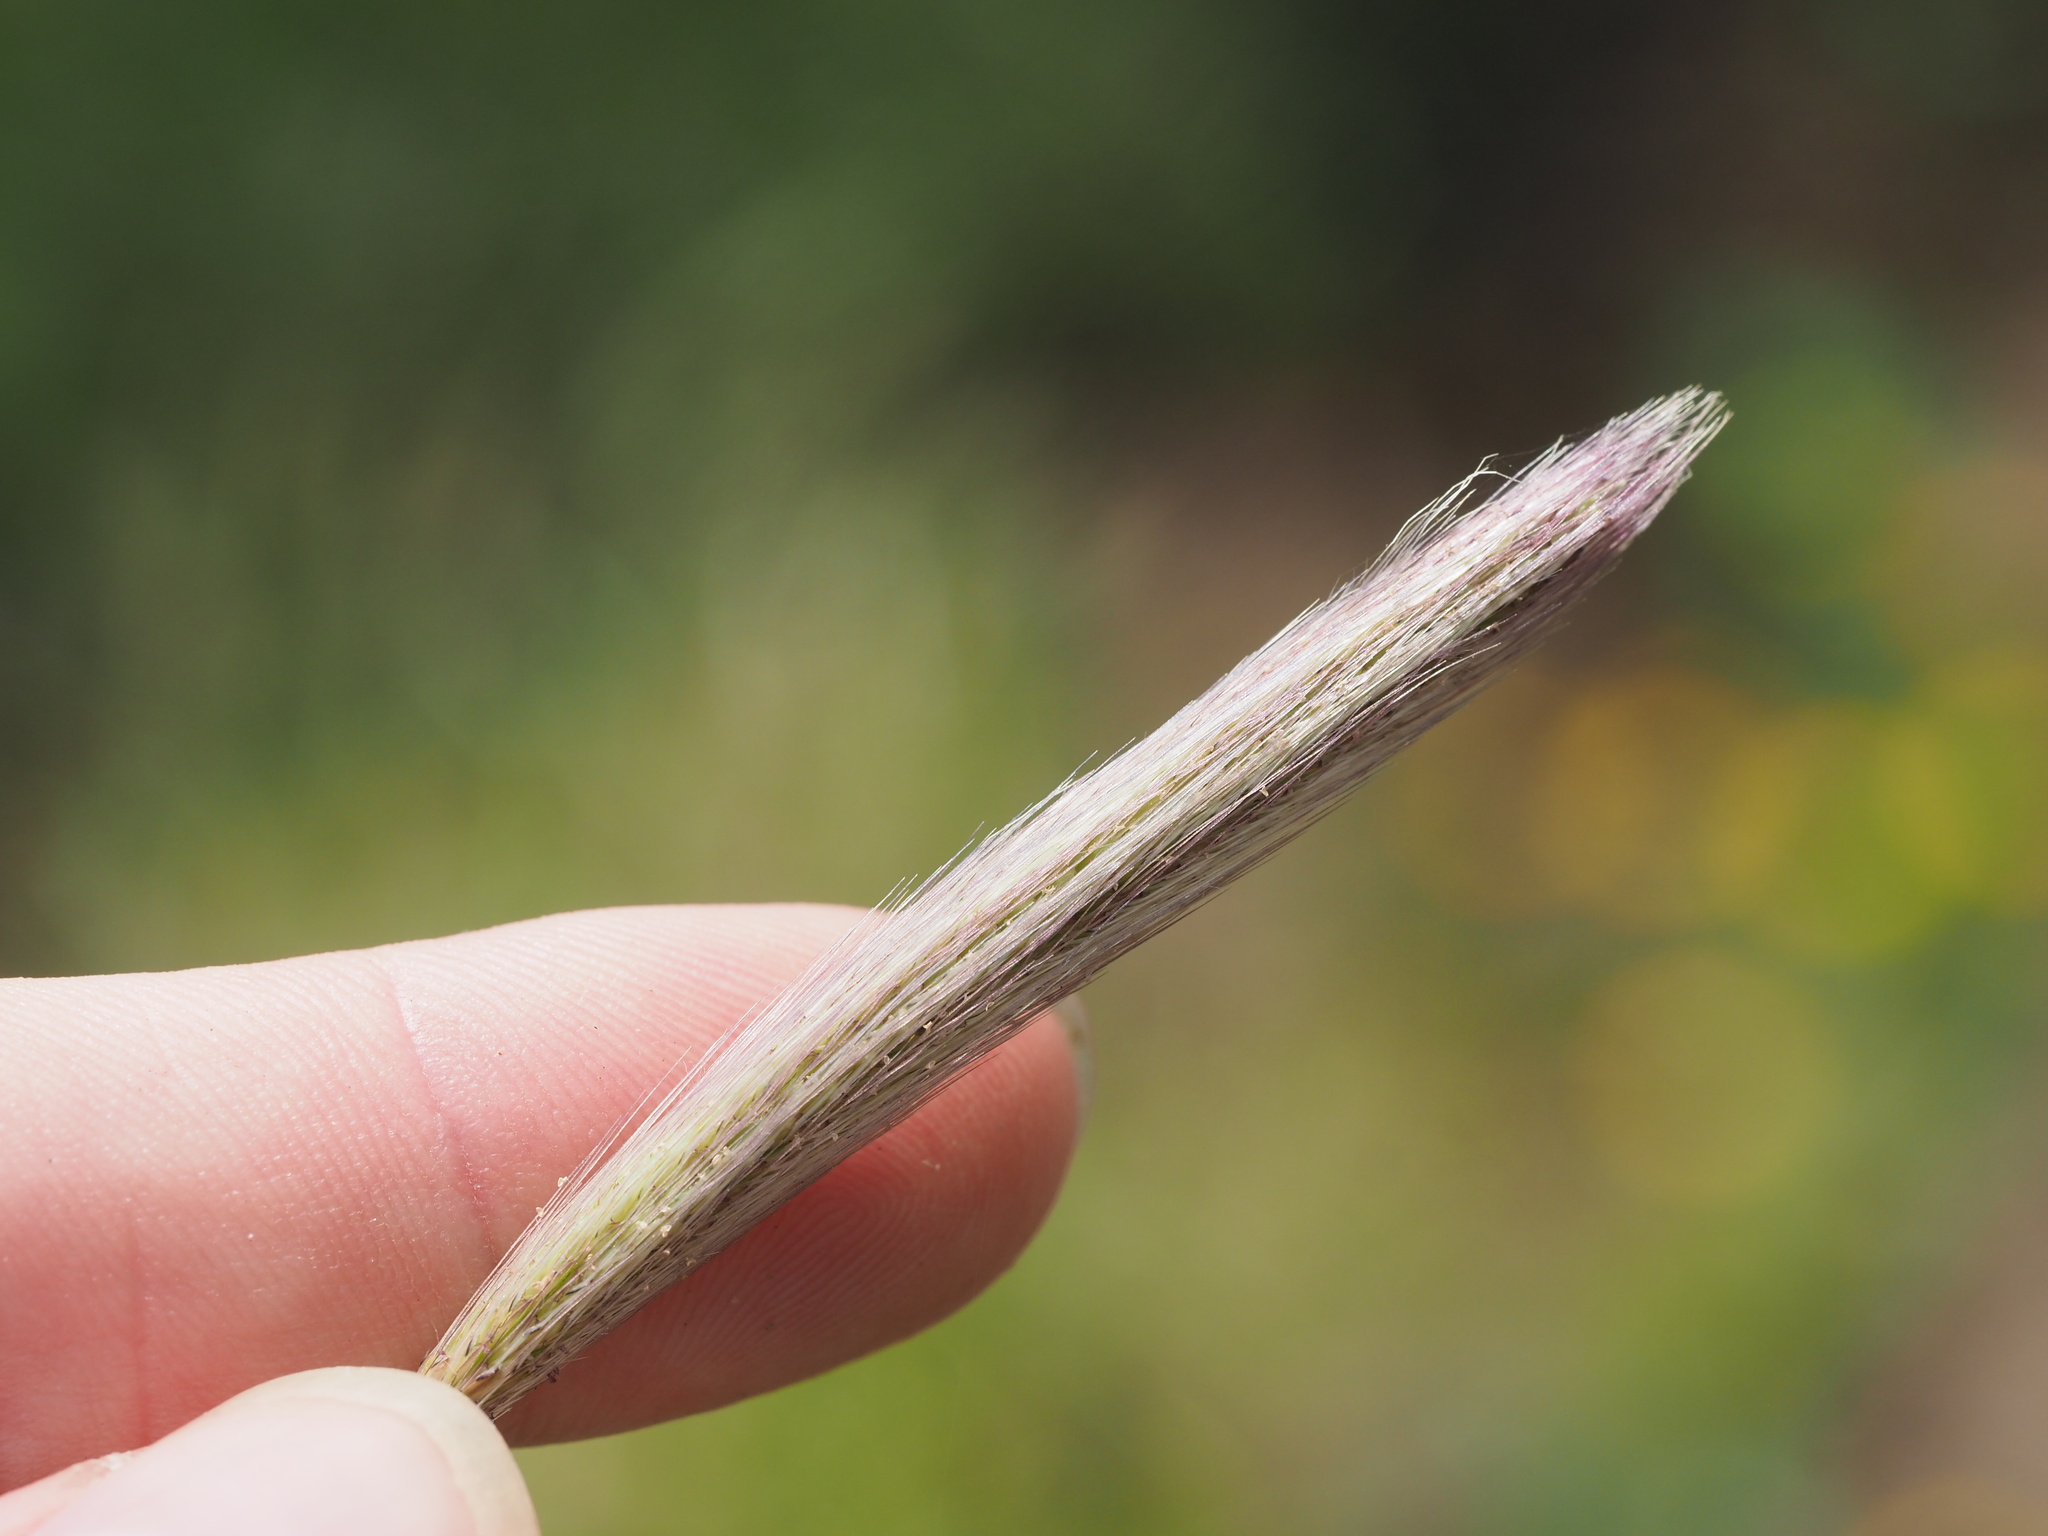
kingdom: Plantae
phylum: Tracheophyta
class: Liliopsida
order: Poales
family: Poaceae
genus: Chloris
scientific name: Chloris virgata
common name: Feathery rhodes-grass
